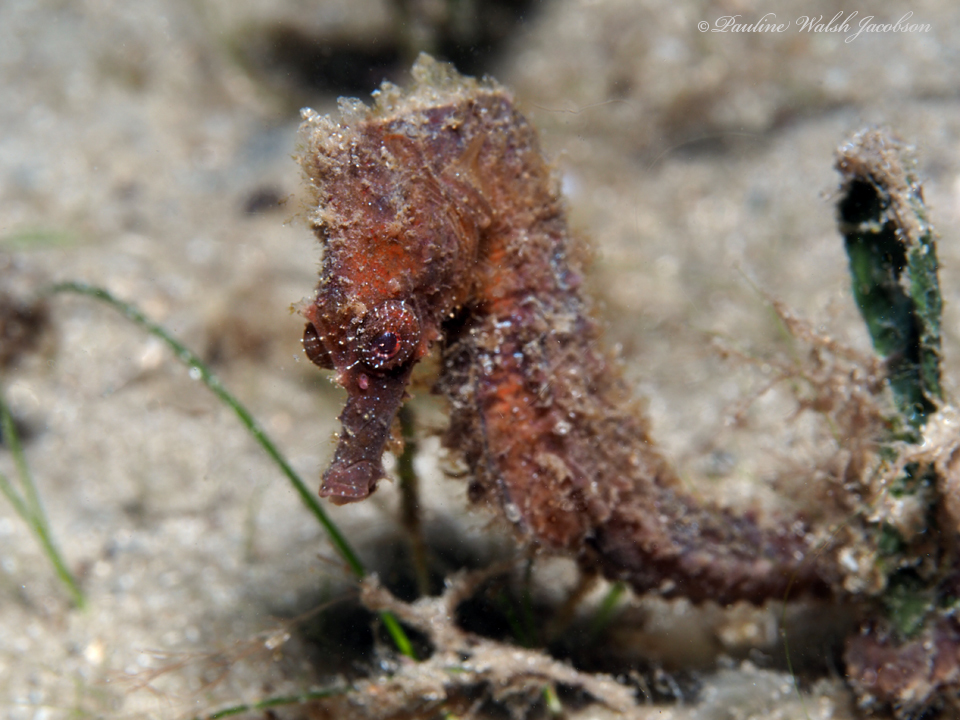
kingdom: Animalia
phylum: Chordata
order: Syngnathiformes
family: Syngnathidae
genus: Hippocampus
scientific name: Hippocampus erectus
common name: Lined seahorse
